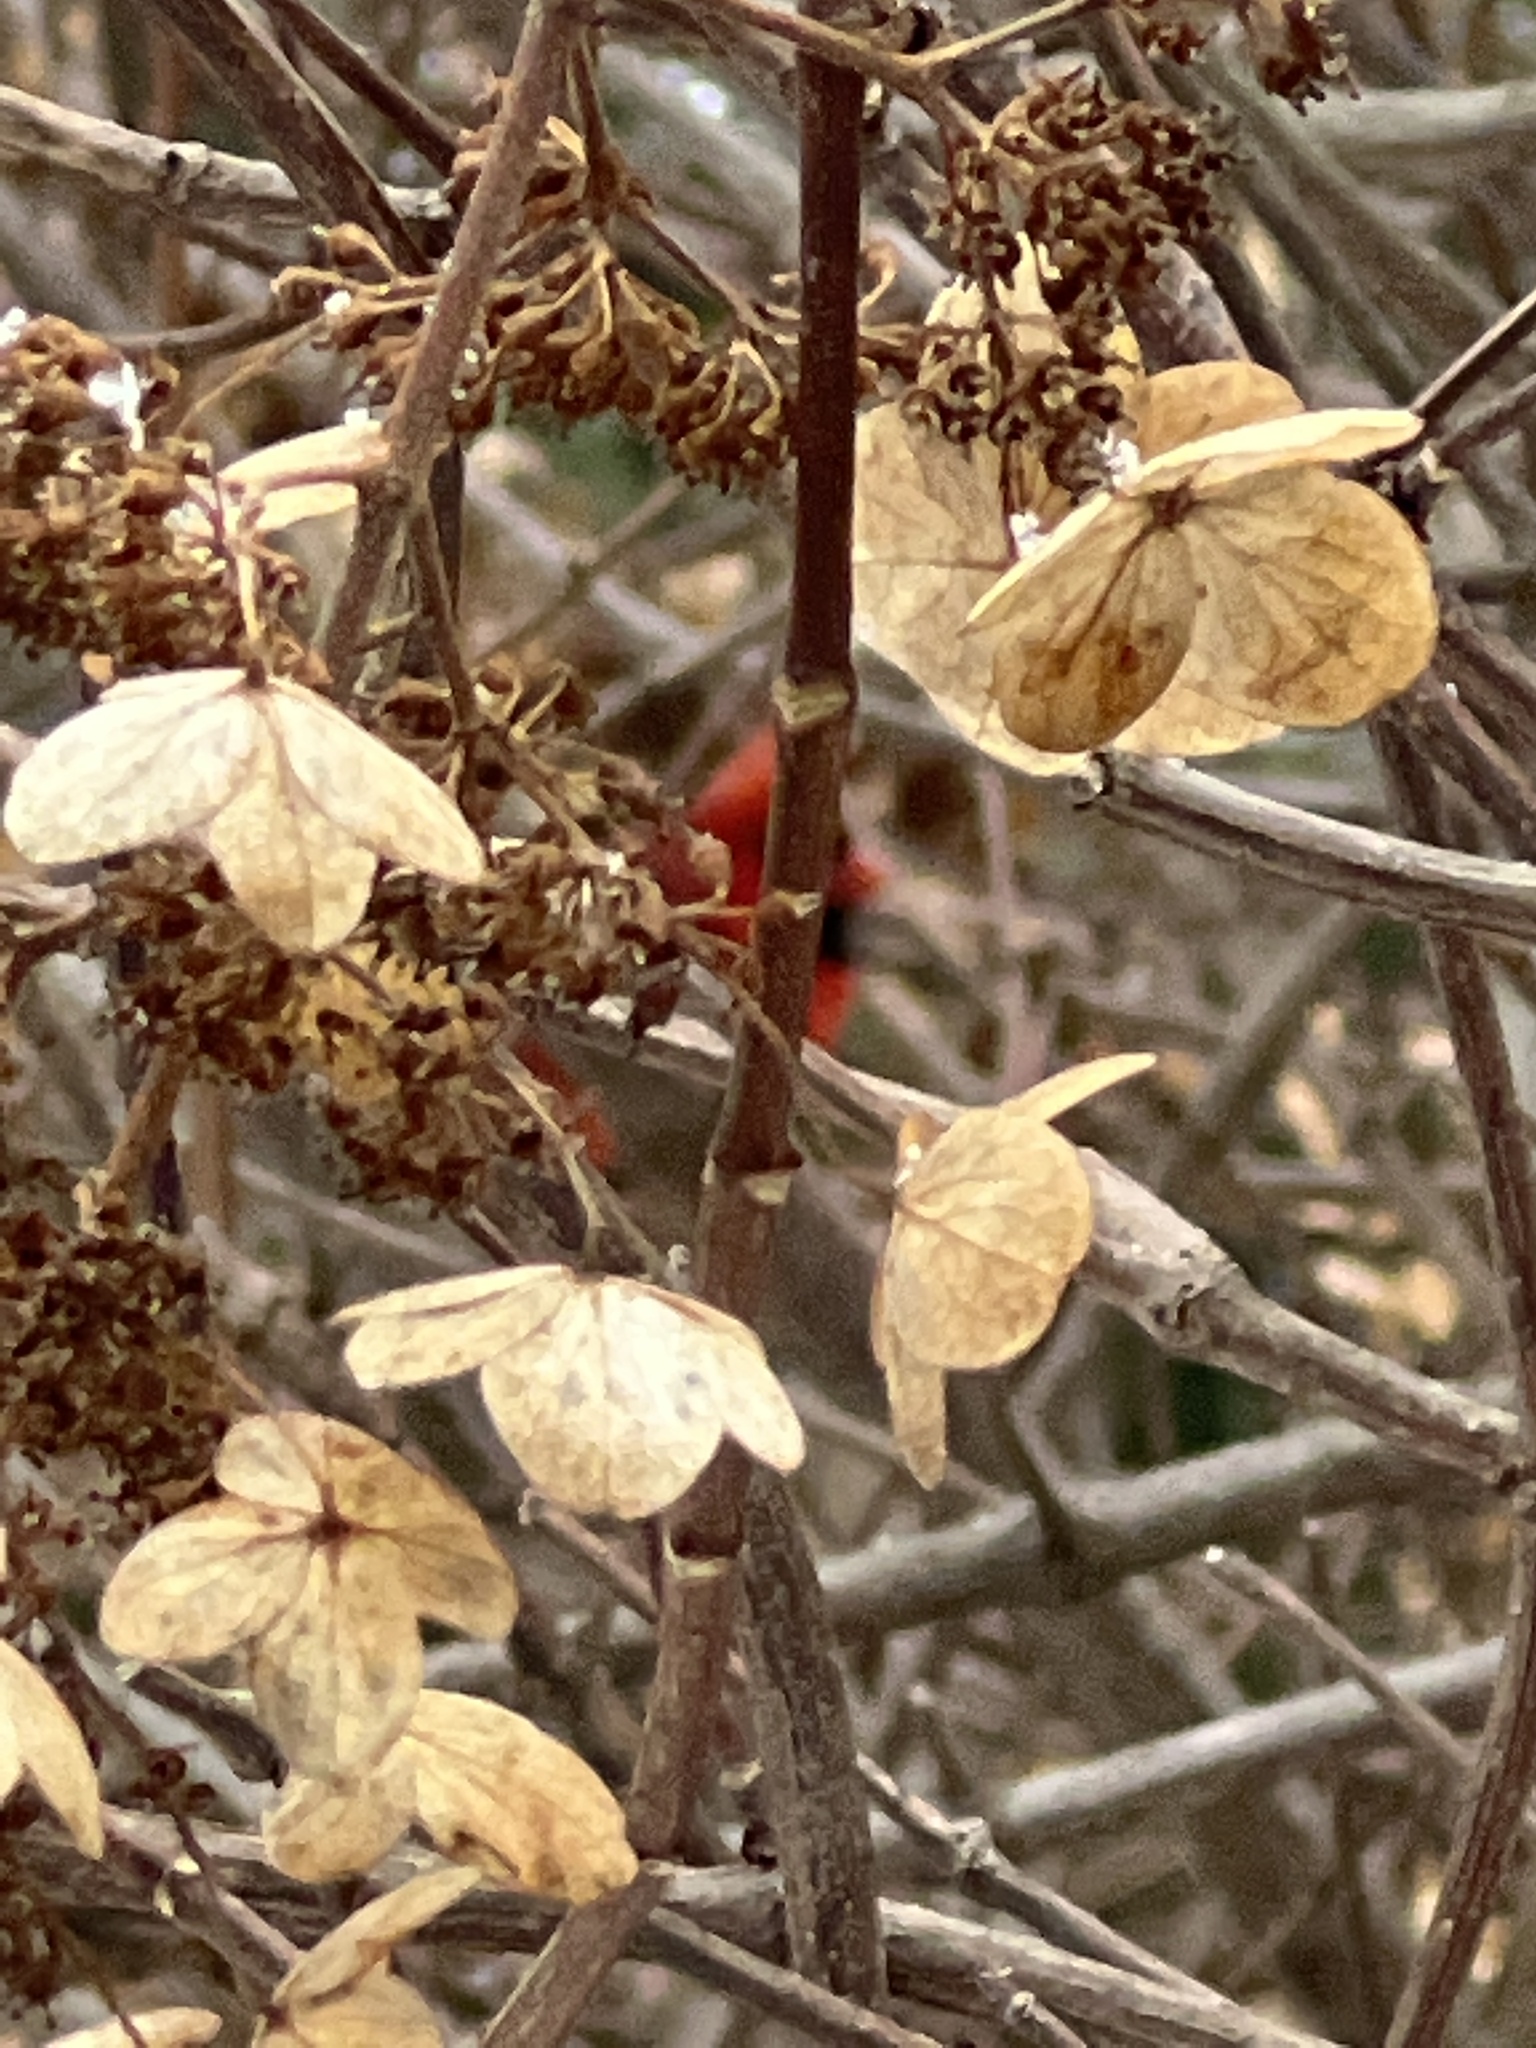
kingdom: Animalia
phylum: Chordata
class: Aves
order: Passeriformes
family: Cardinalidae
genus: Cardinalis
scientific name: Cardinalis cardinalis
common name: Northern cardinal
